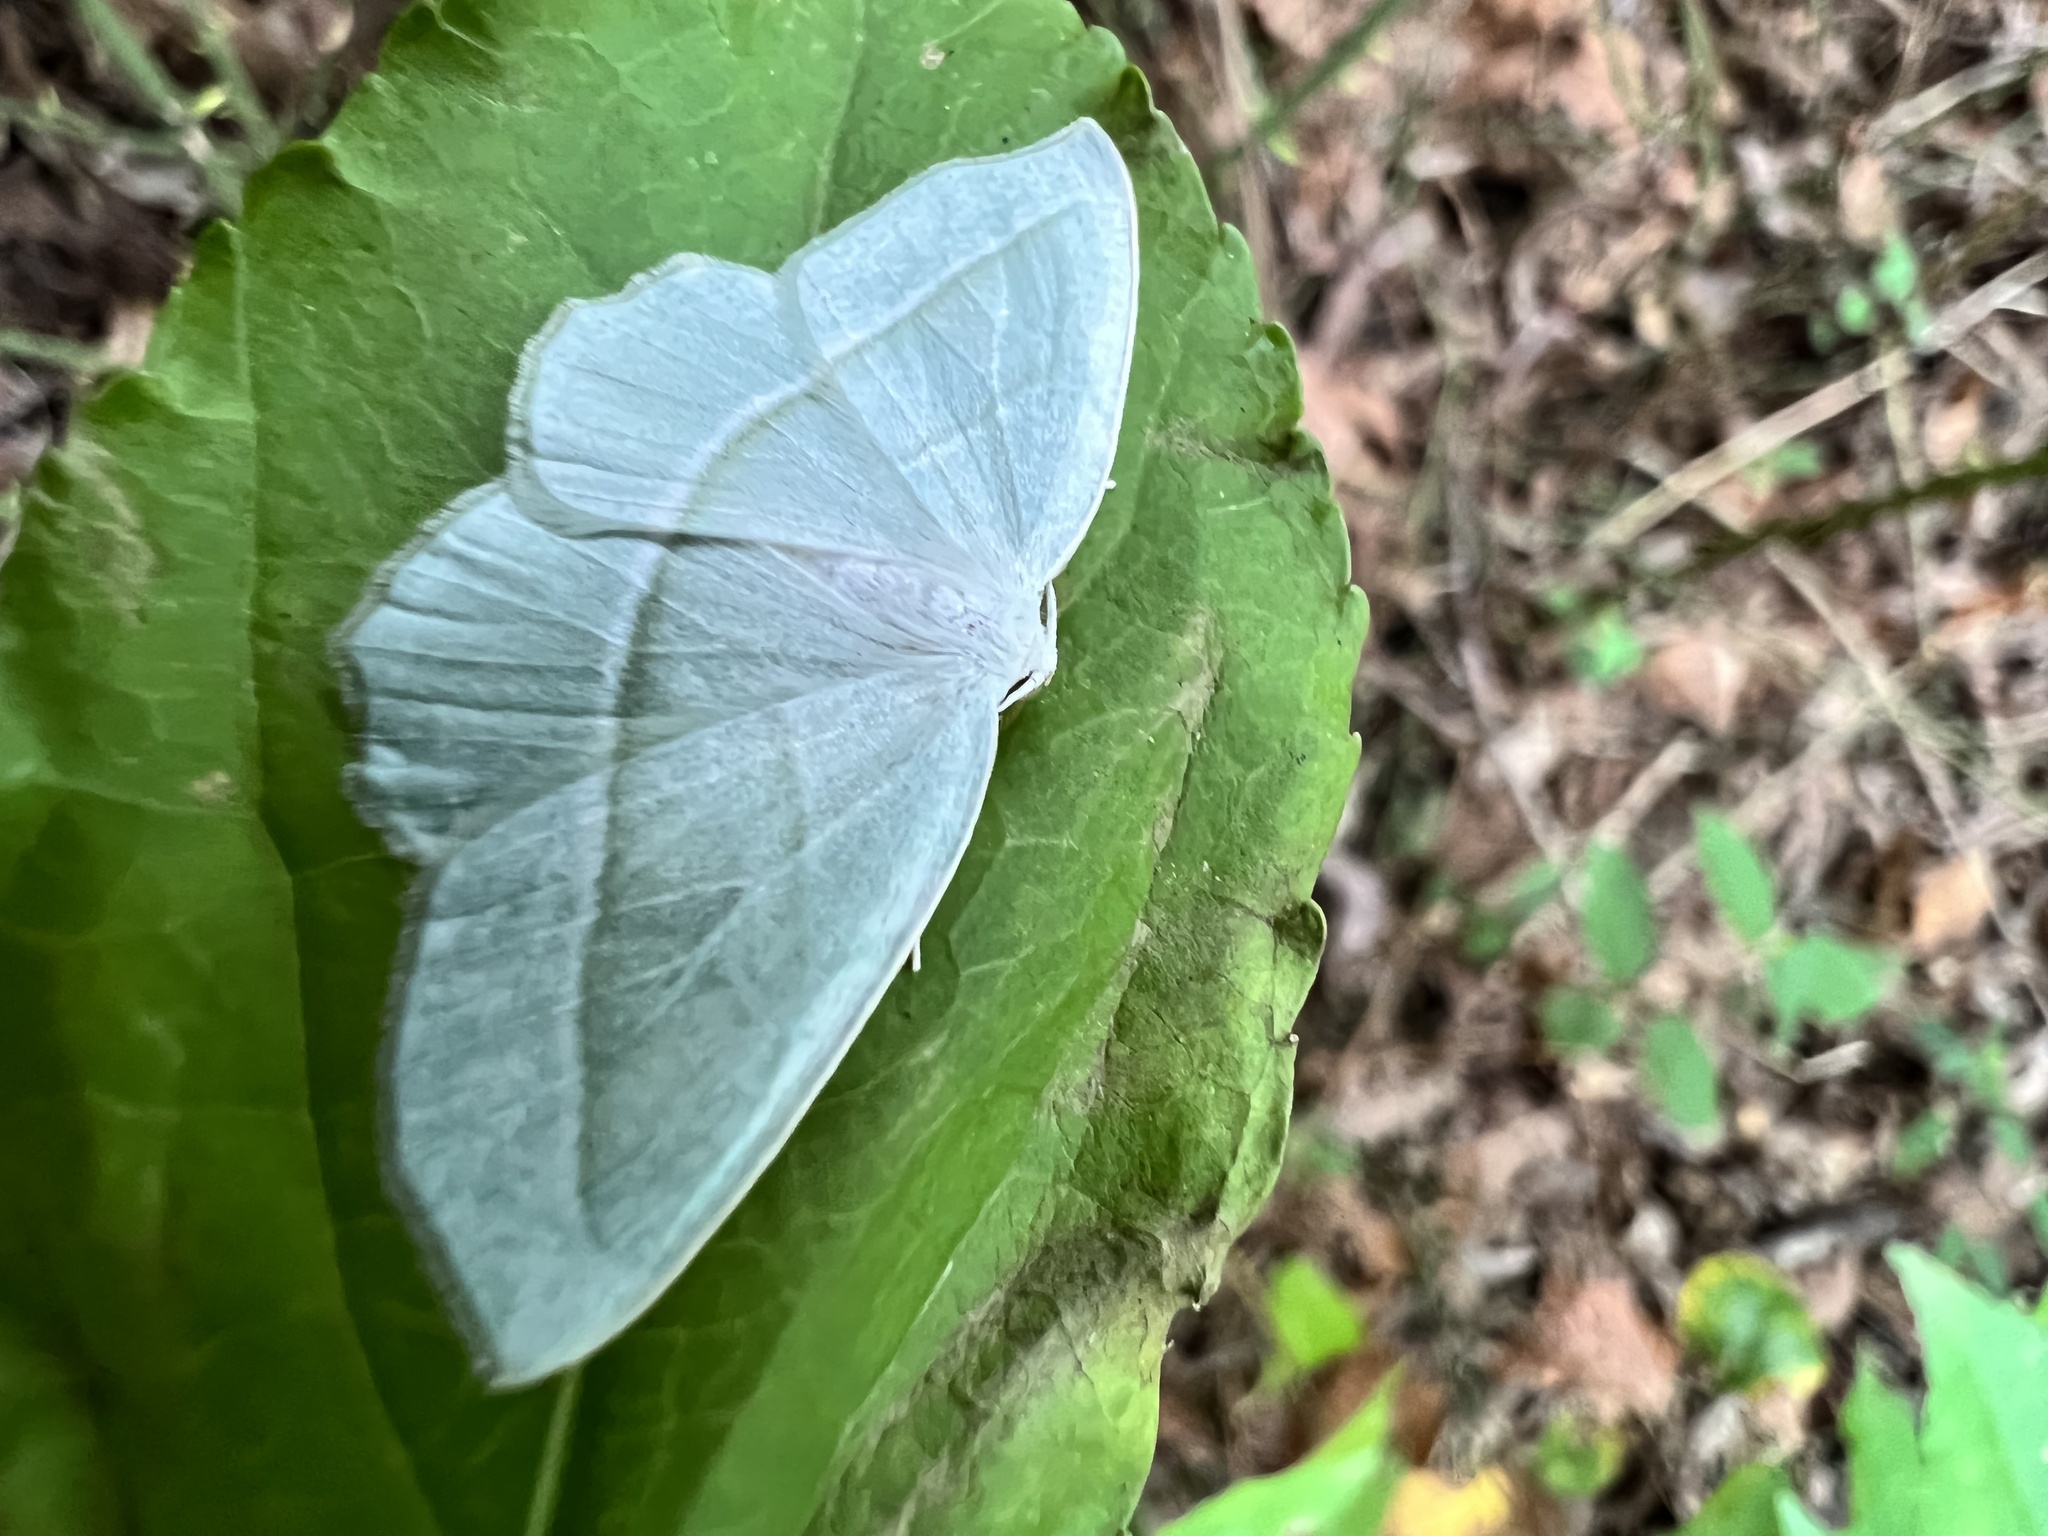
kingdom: Animalia
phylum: Arthropoda
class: Insecta
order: Lepidoptera
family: Geometridae
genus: Campaea
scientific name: Campaea perlata
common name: Fringed looper
